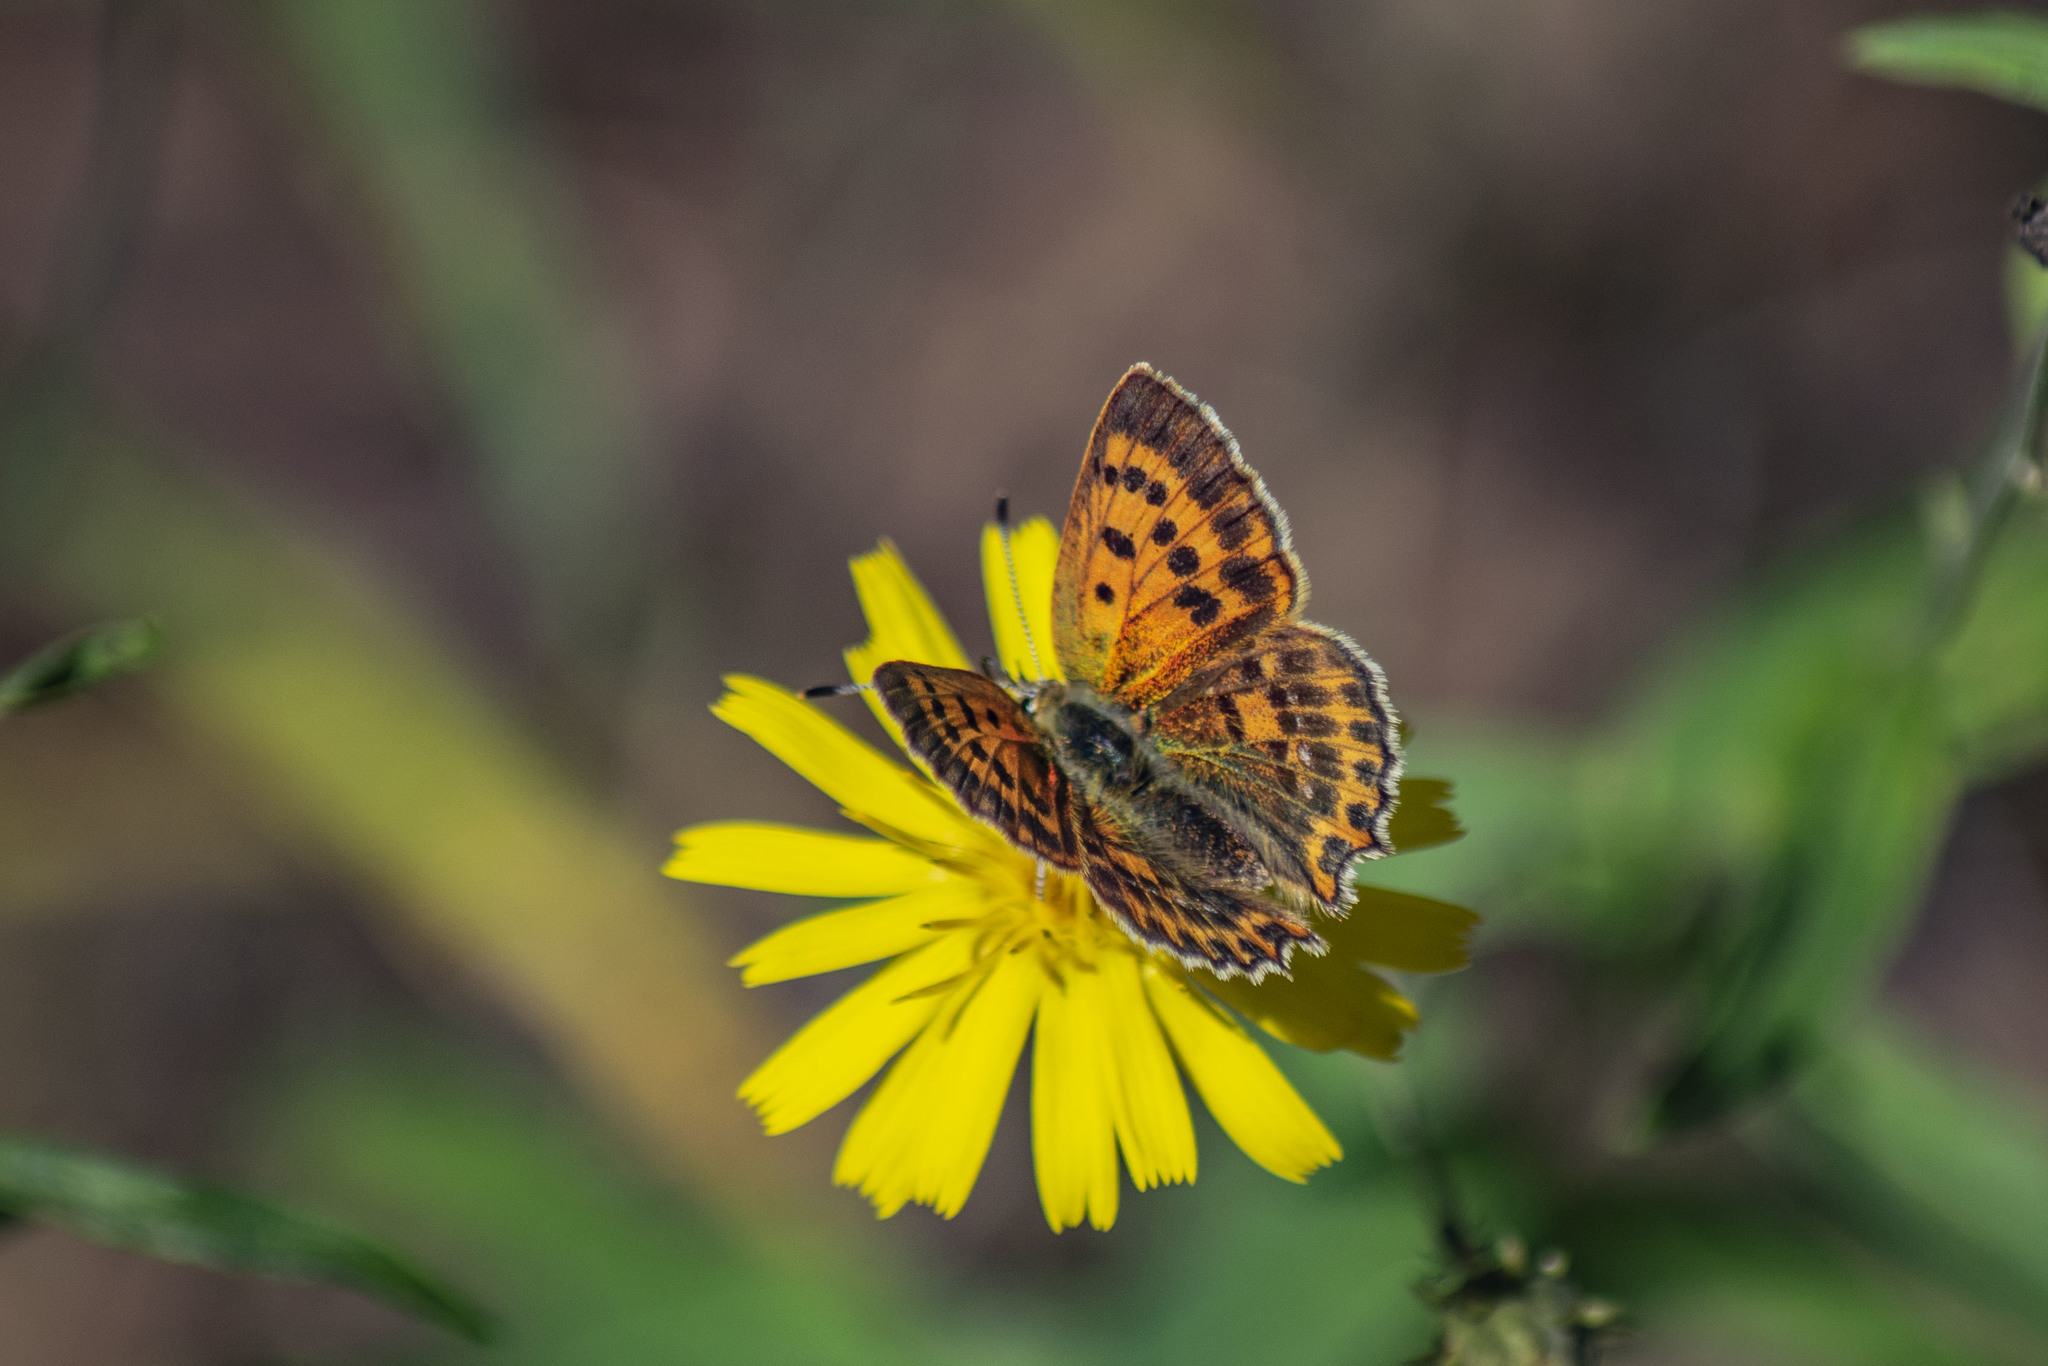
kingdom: Animalia
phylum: Arthropoda
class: Insecta
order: Lepidoptera
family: Lycaenidae
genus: Lycaena
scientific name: Lycaena virgaureae
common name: Scarce copper
